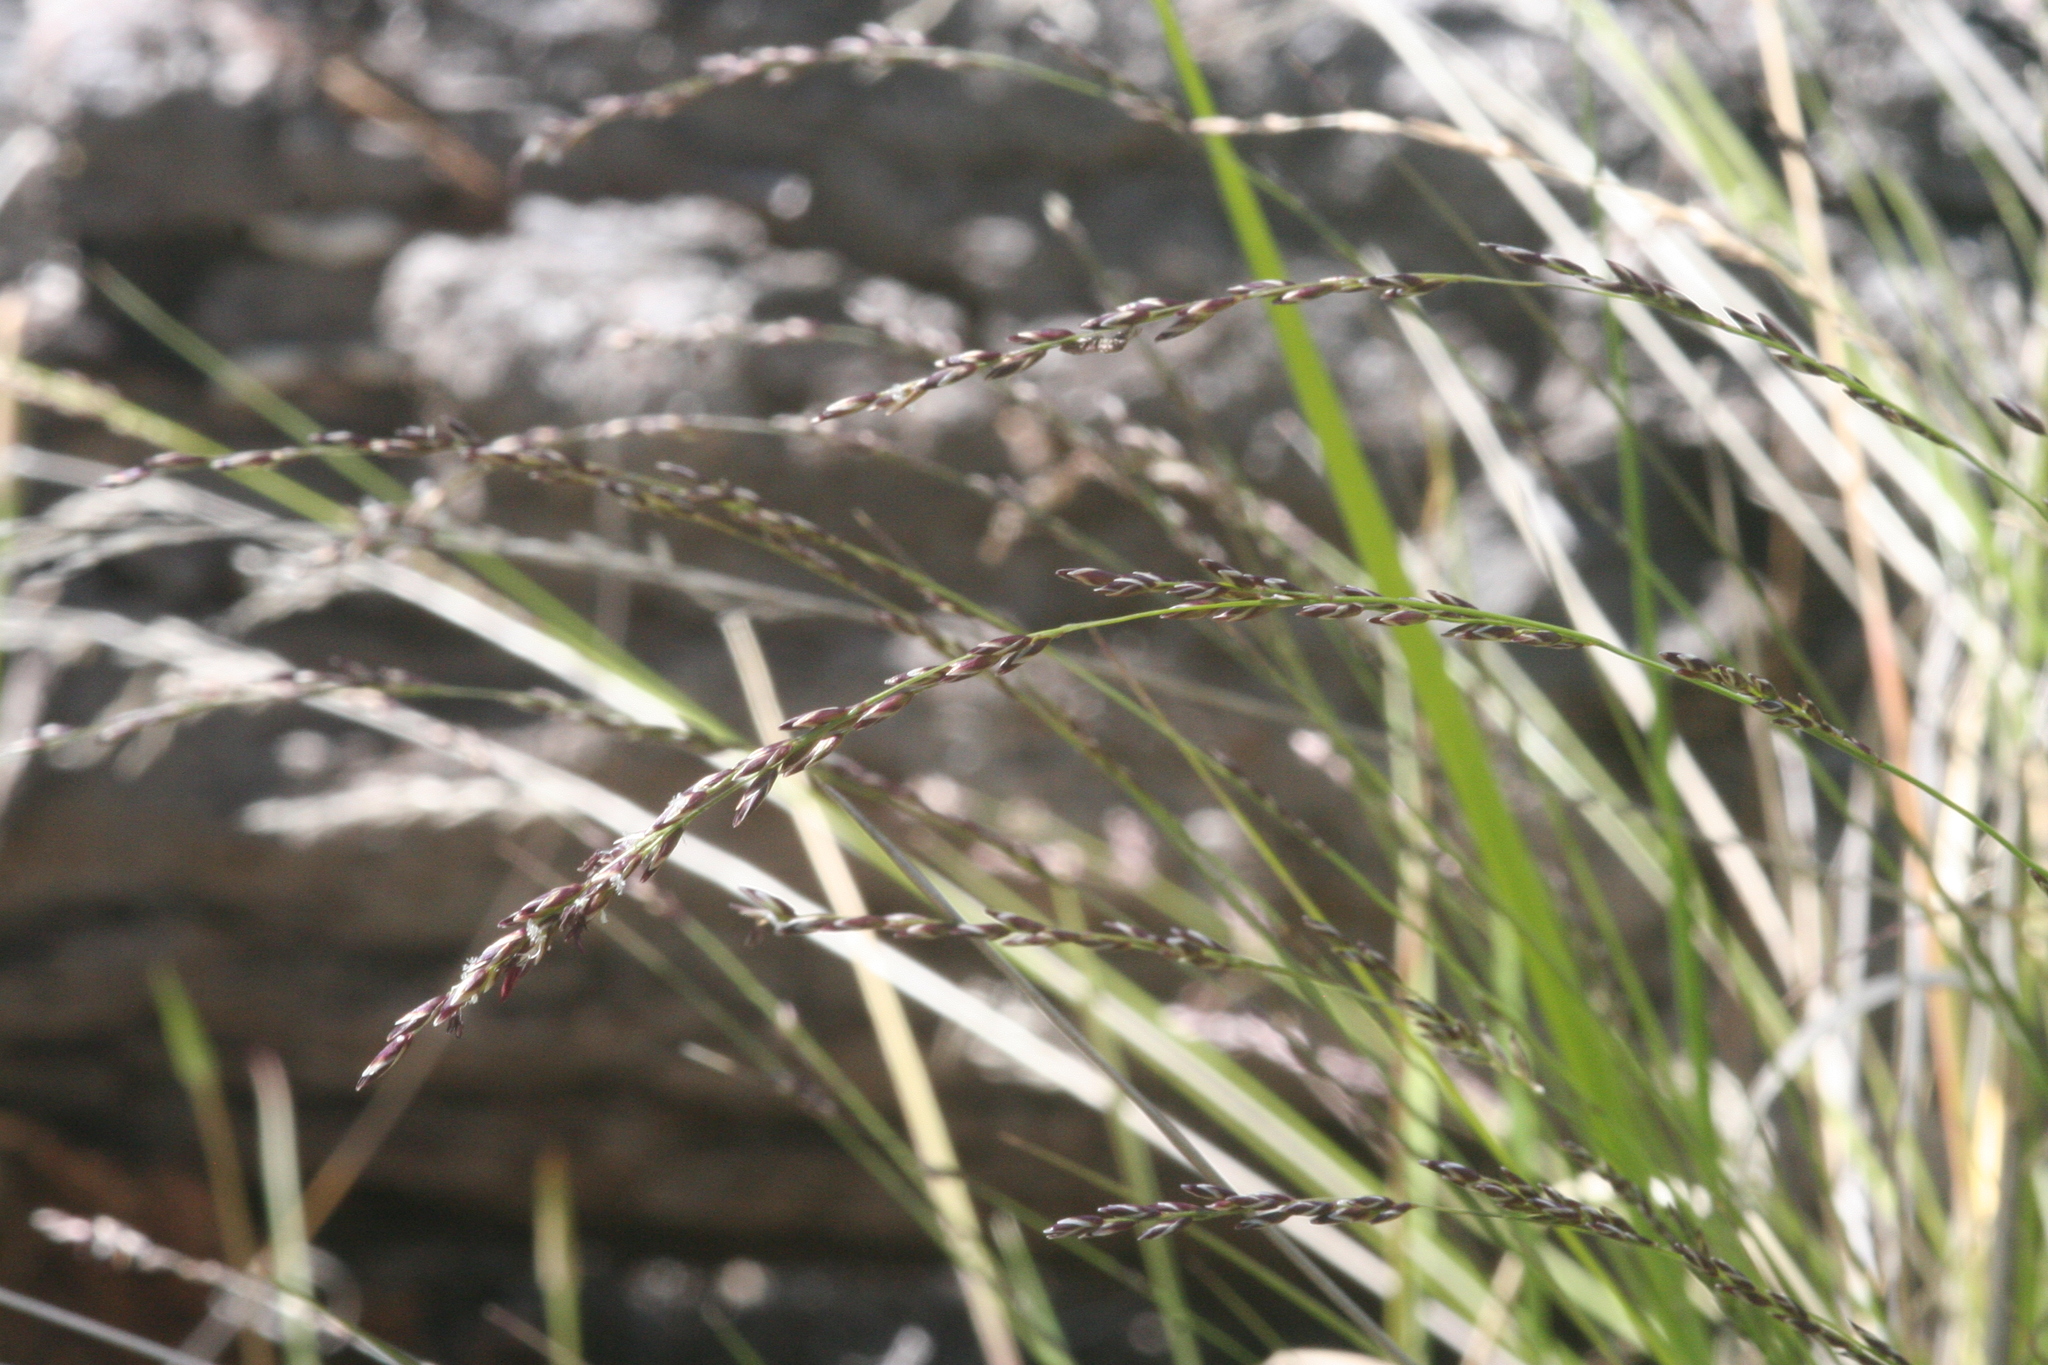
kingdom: Plantae
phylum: Tracheophyta
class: Liliopsida
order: Poales
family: Poaceae
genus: Melica
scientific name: Melica imperfecta
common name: California melic
